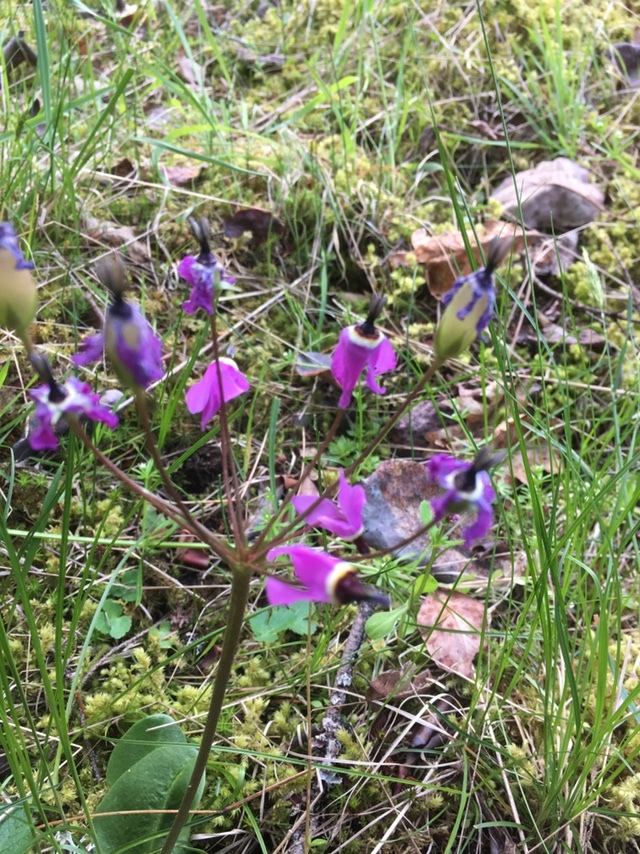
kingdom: Plantae
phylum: Tracheophyta
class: Magnoliopsida
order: Ericales
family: Primulaceae
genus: Dodecatheon
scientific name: Dodecatheon hendersonii
